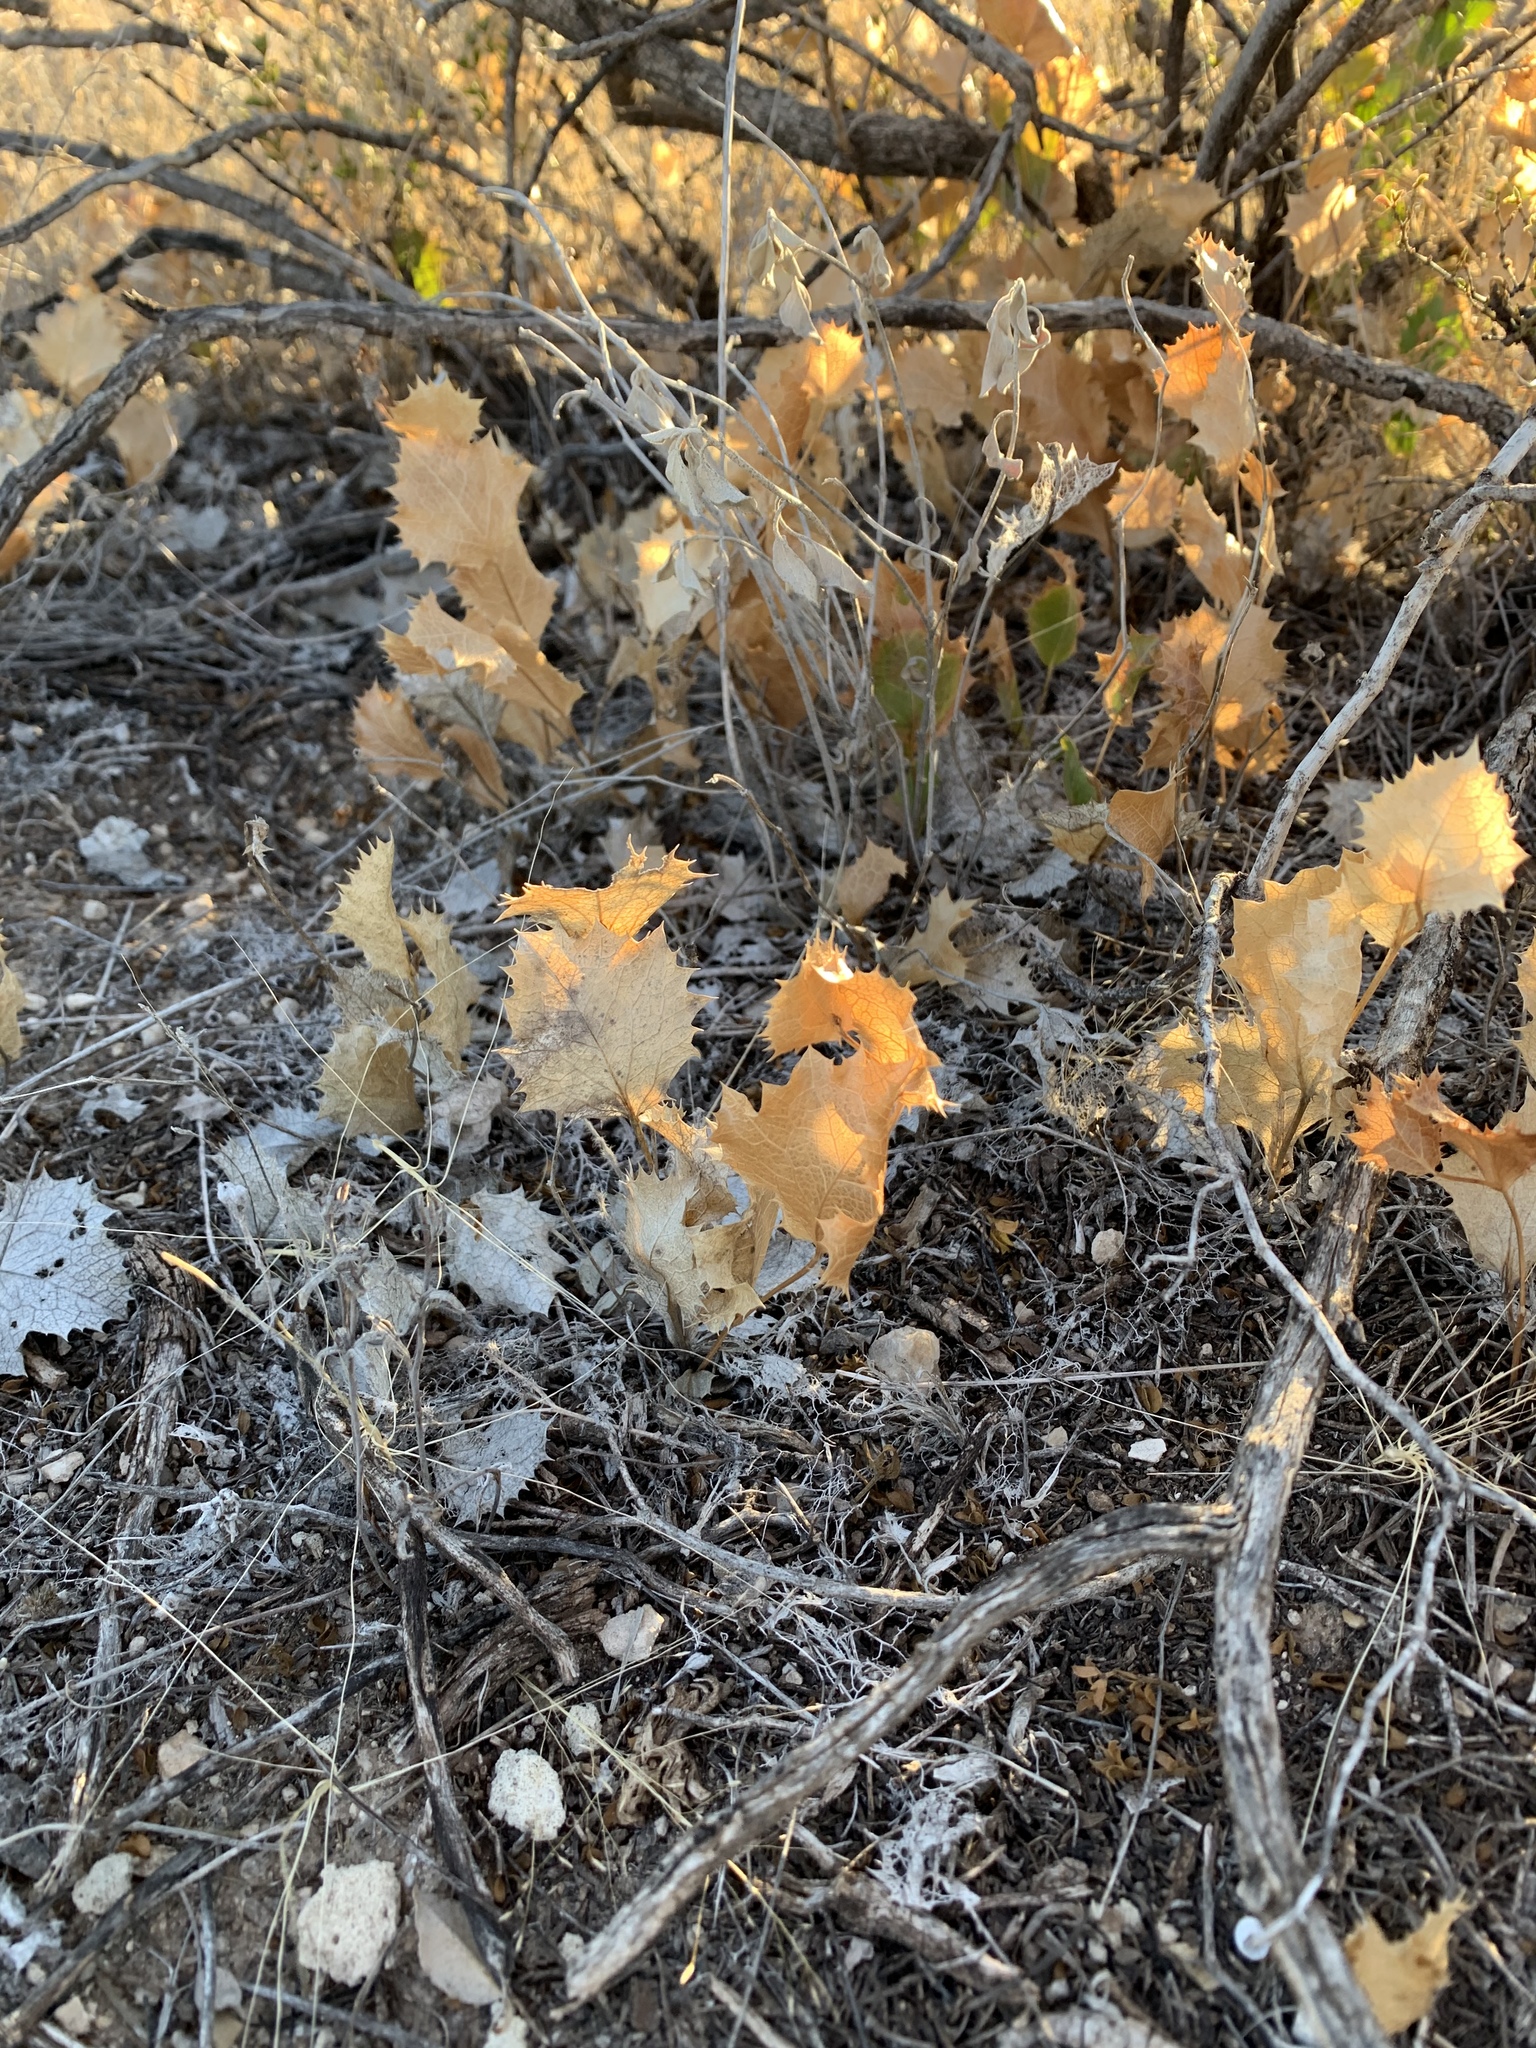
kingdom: Plantae
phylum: Tracheophyta
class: Magnoliopsida
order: Asterales
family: Asteraceae
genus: Acourtia
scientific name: Acourtia nana
